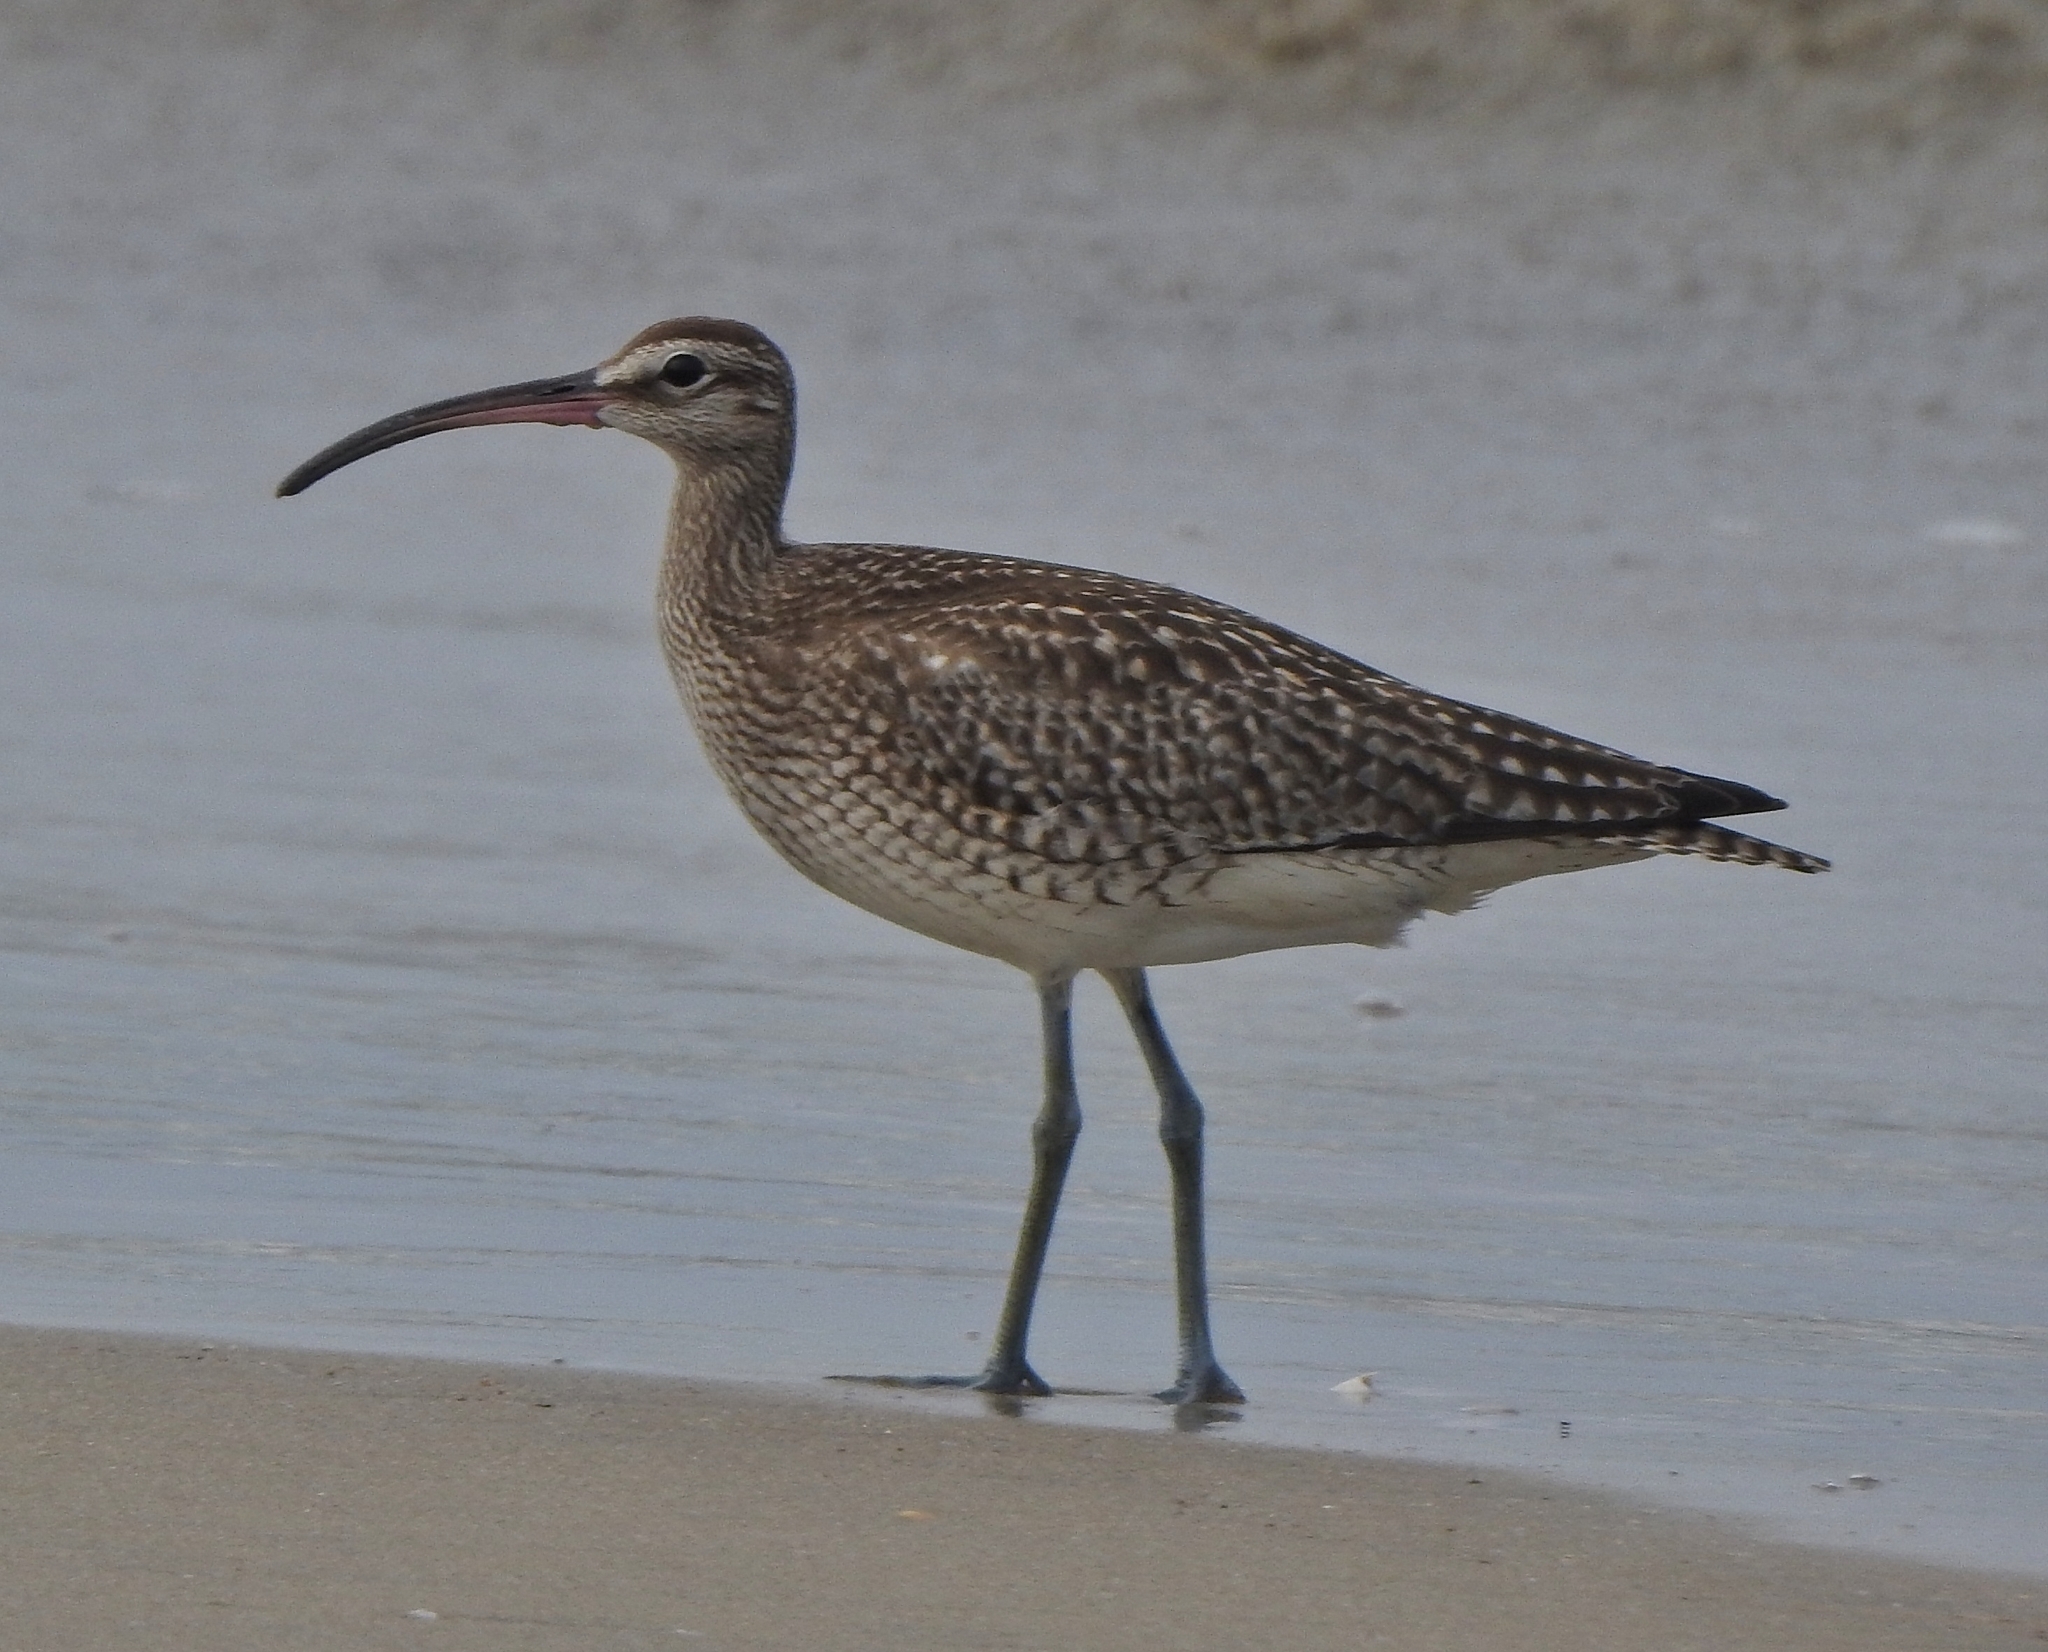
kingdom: Animalia
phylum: Chordata
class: Aves
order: Charadriiformes
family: Scolopacidae
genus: Numenius
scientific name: Numenius phaeopus
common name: Whimbrel
